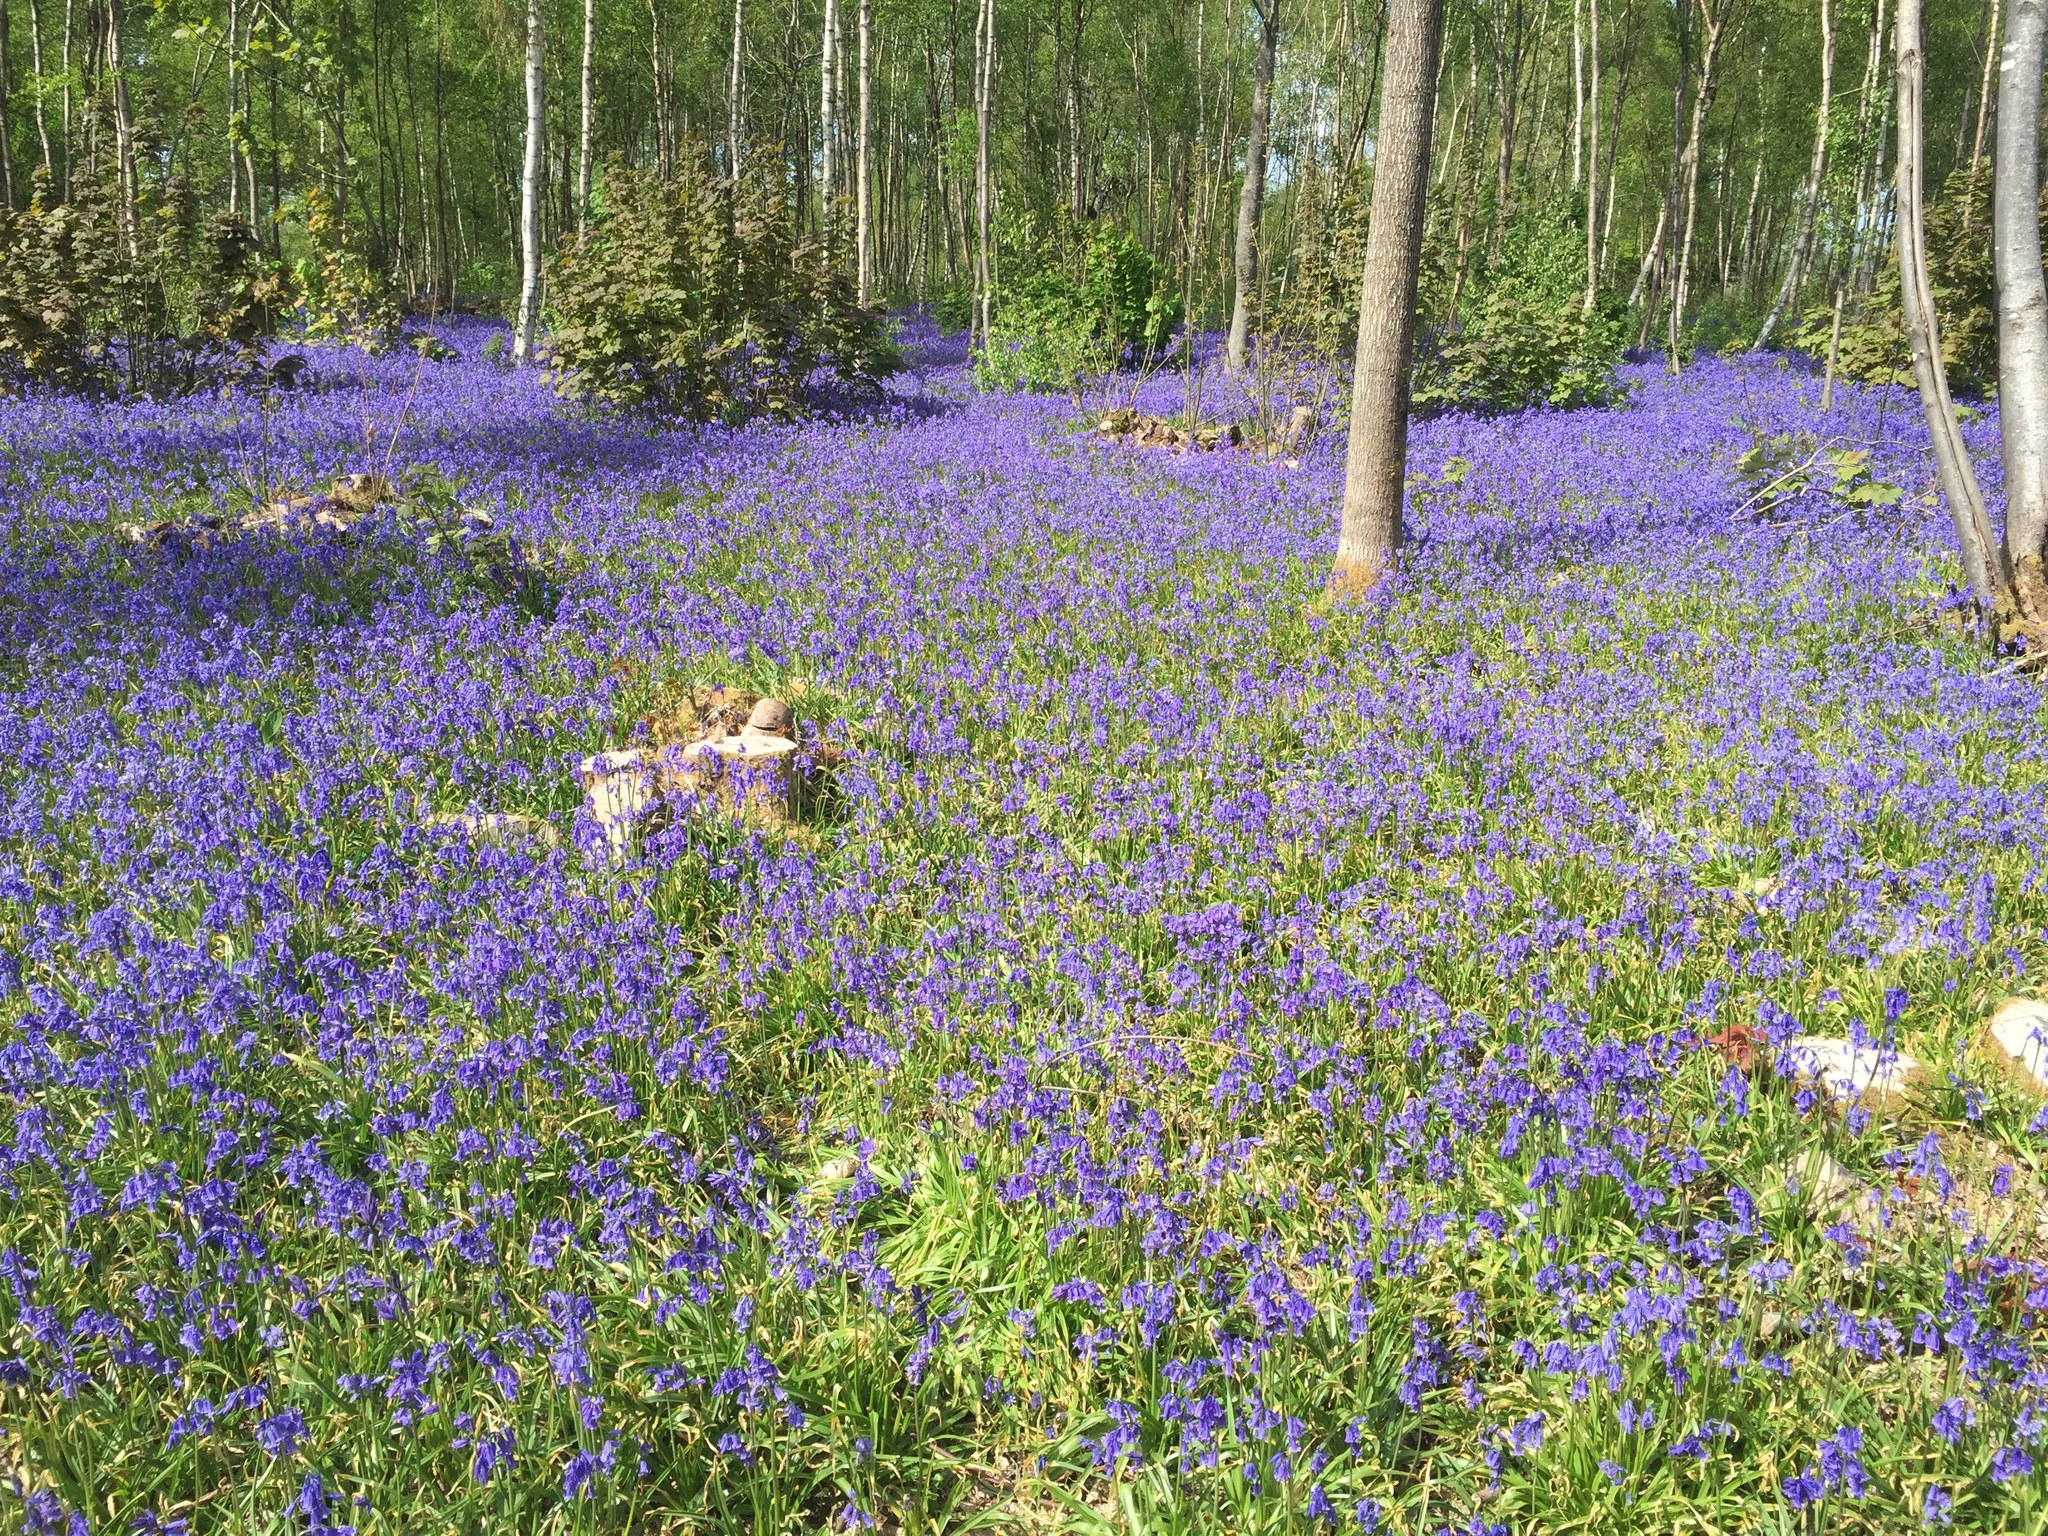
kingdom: Plantae
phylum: Tracheophyta
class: Liliopsida
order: Asparagales
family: Asparagaceae
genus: Hyacinthoides
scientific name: Hyacinthoides non-scripta
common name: Bluebell
